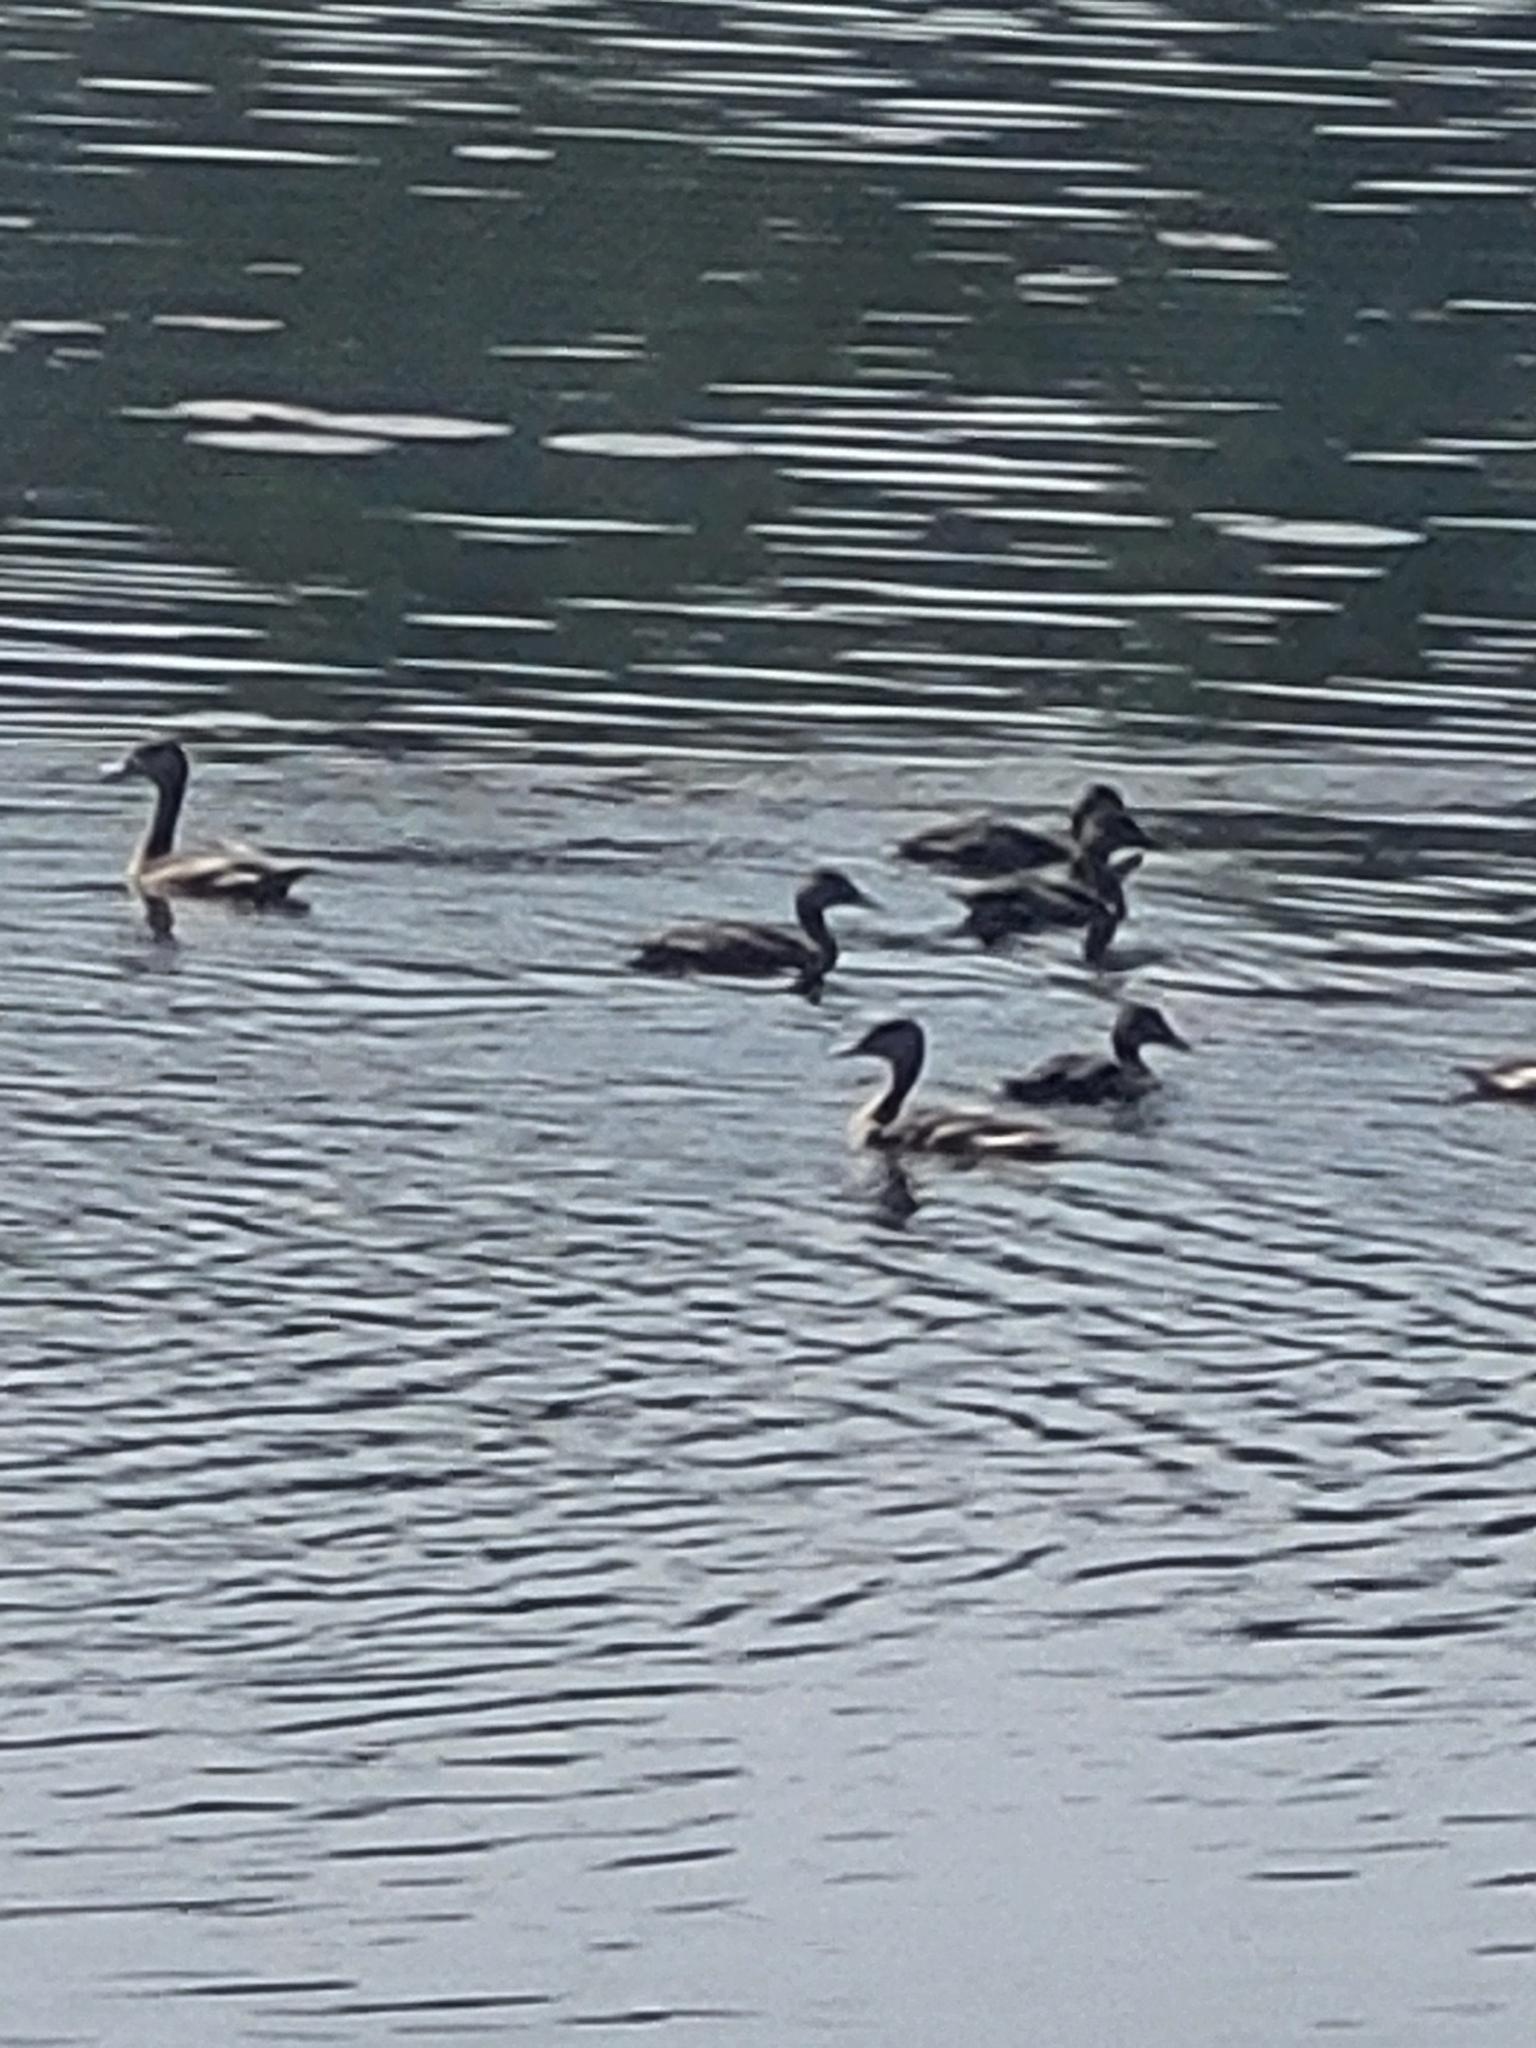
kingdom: Animalia
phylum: Chordata
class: Aves
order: Anseriformes
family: Anatidae
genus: Dendrocygna
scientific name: Dendrocygna javanica
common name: Lesser whistling-duck
